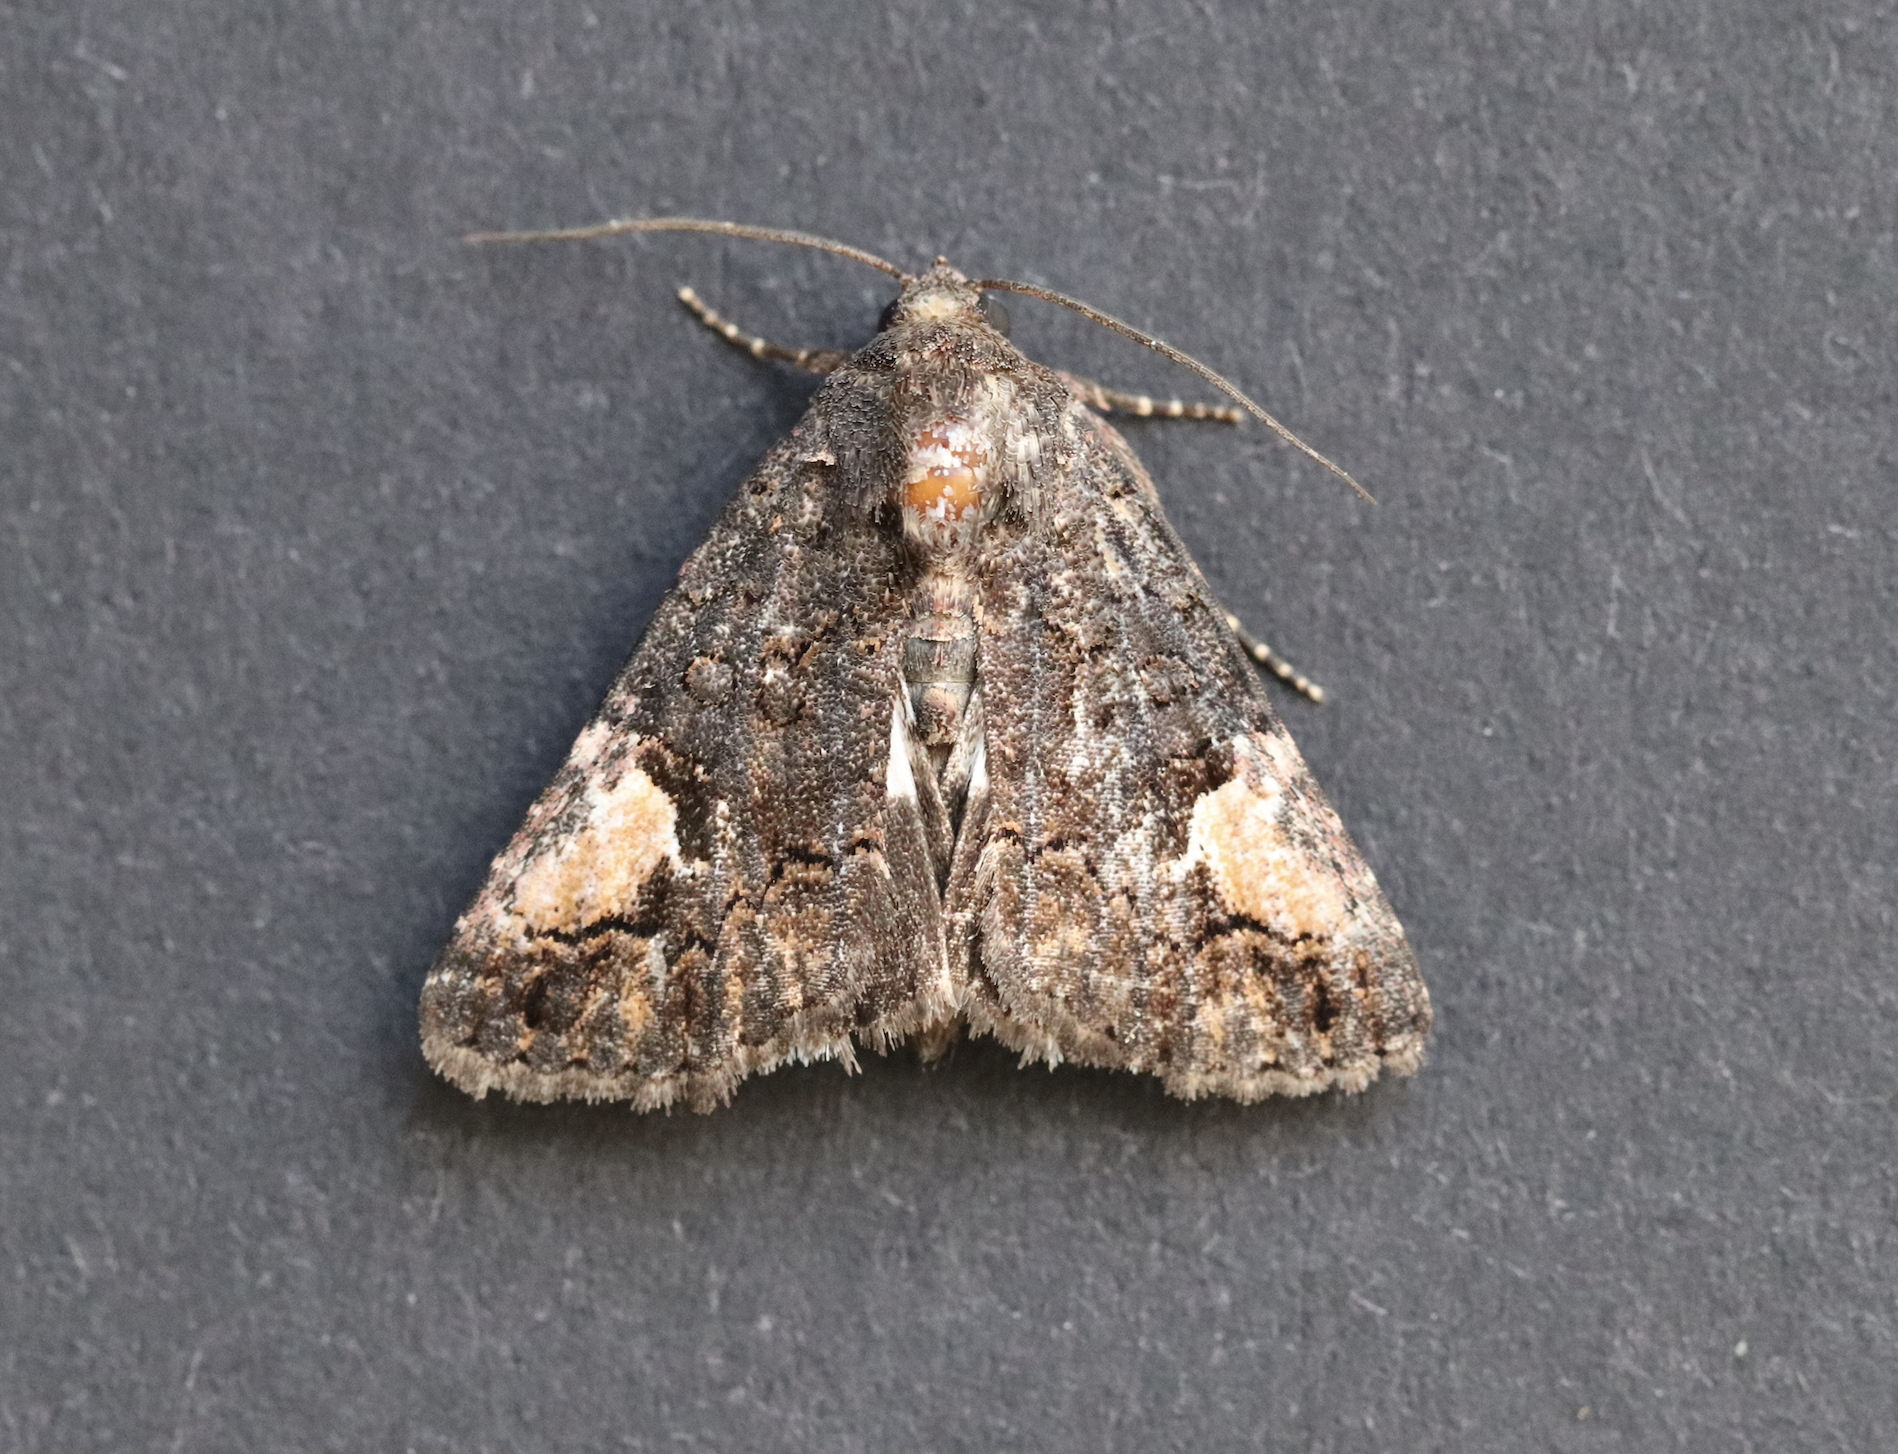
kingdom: Animalia
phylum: Arthropoda
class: Insecta
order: Lepidoptera
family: Noctuidae
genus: Aedia
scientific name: Aedia funesta
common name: The druid
